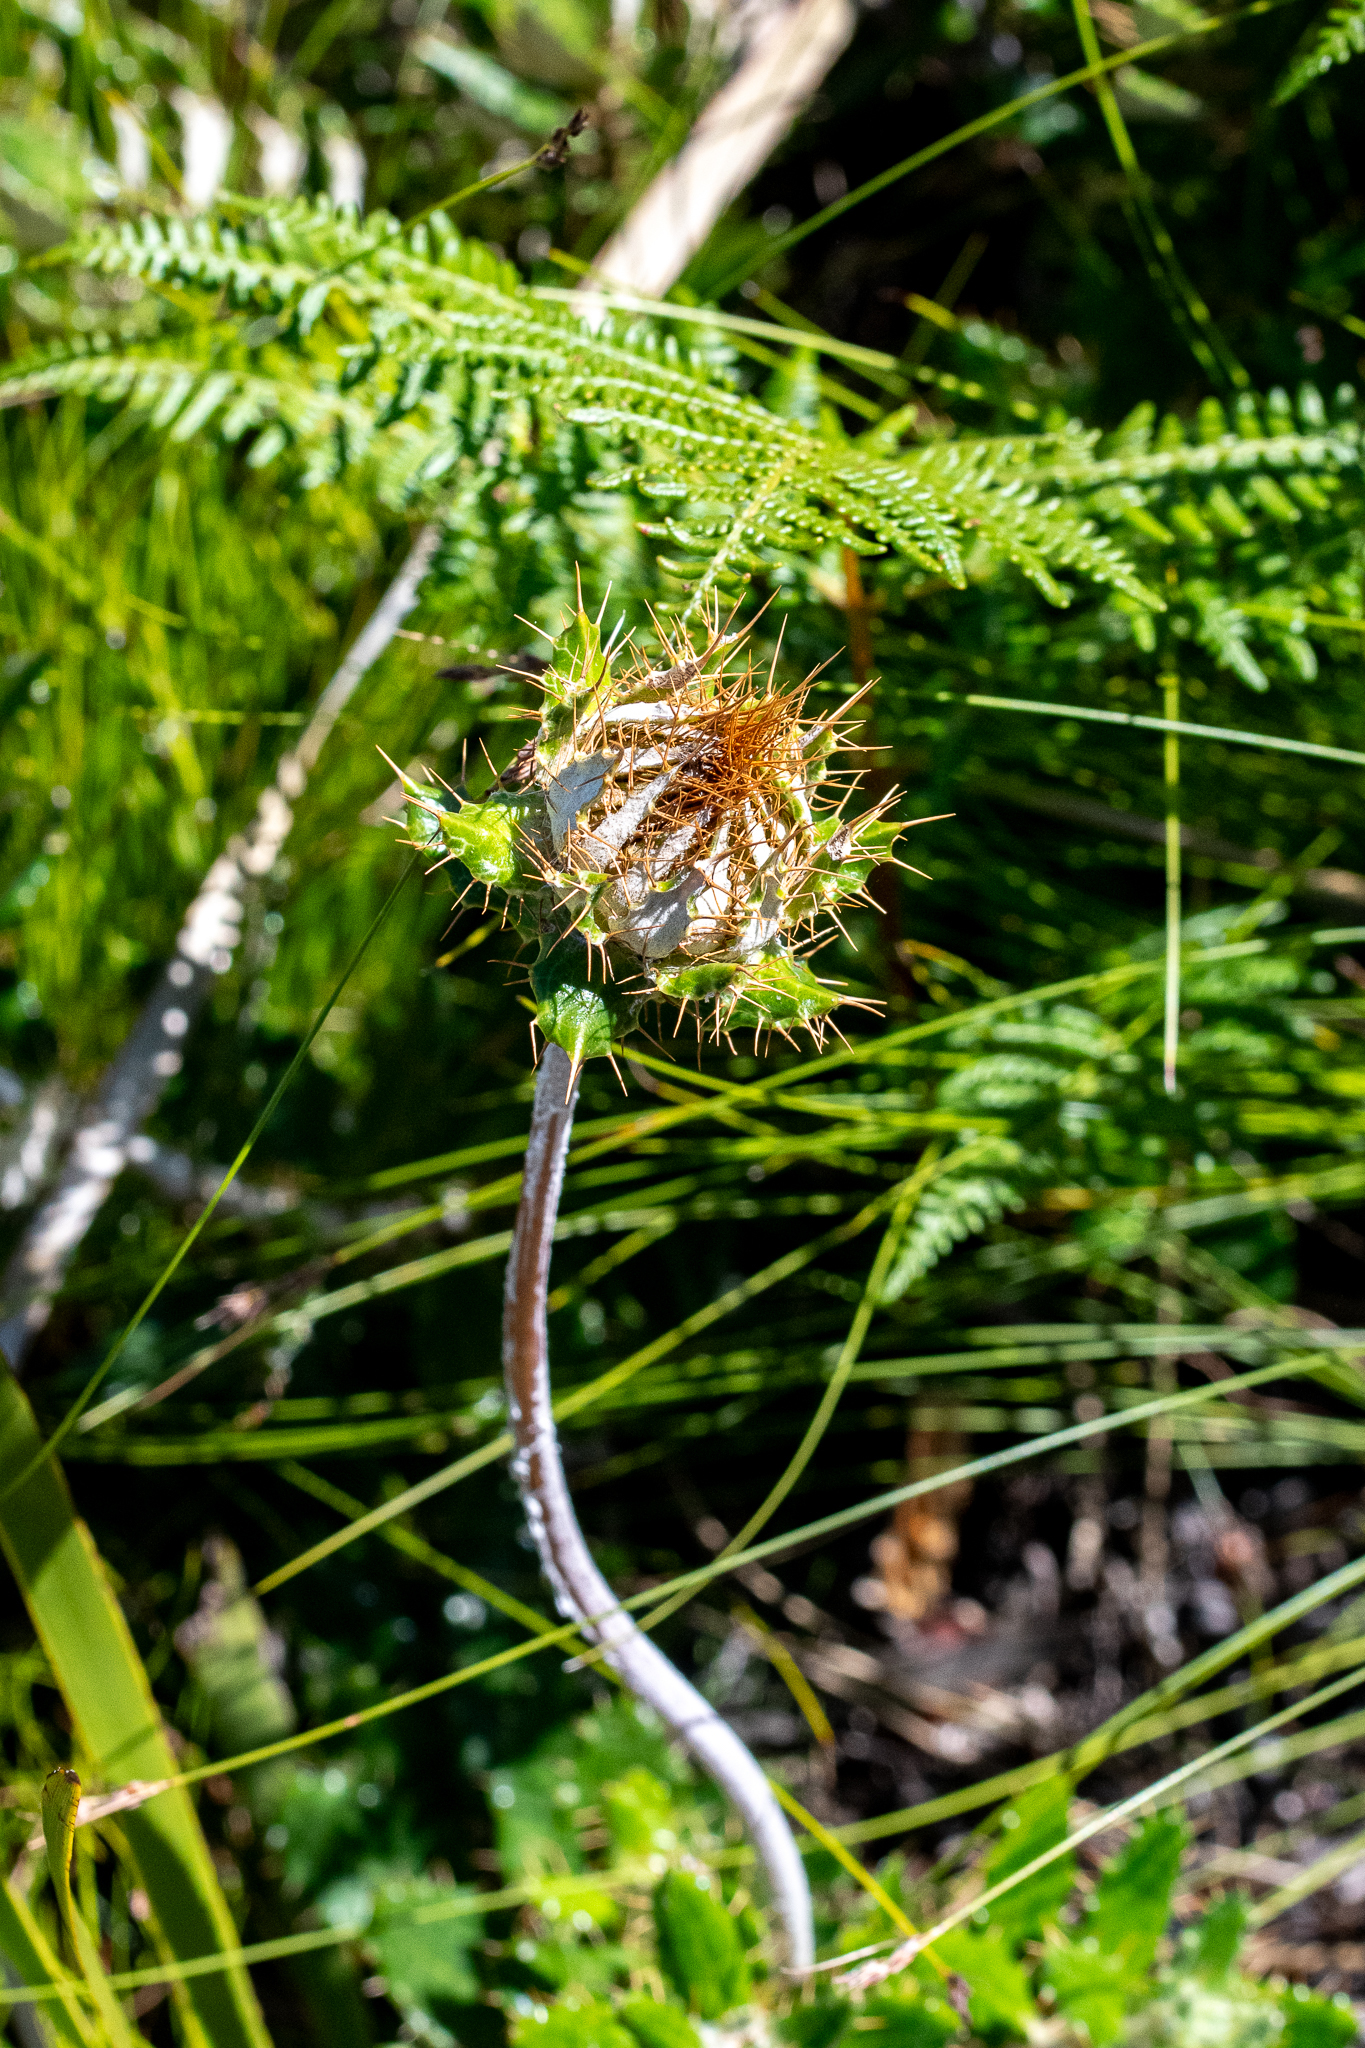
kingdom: Plantae
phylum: Tracheophyta
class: Magnoliopsida
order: Asterales
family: Asteraceae
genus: Berkheya
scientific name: Berkheya barbata
